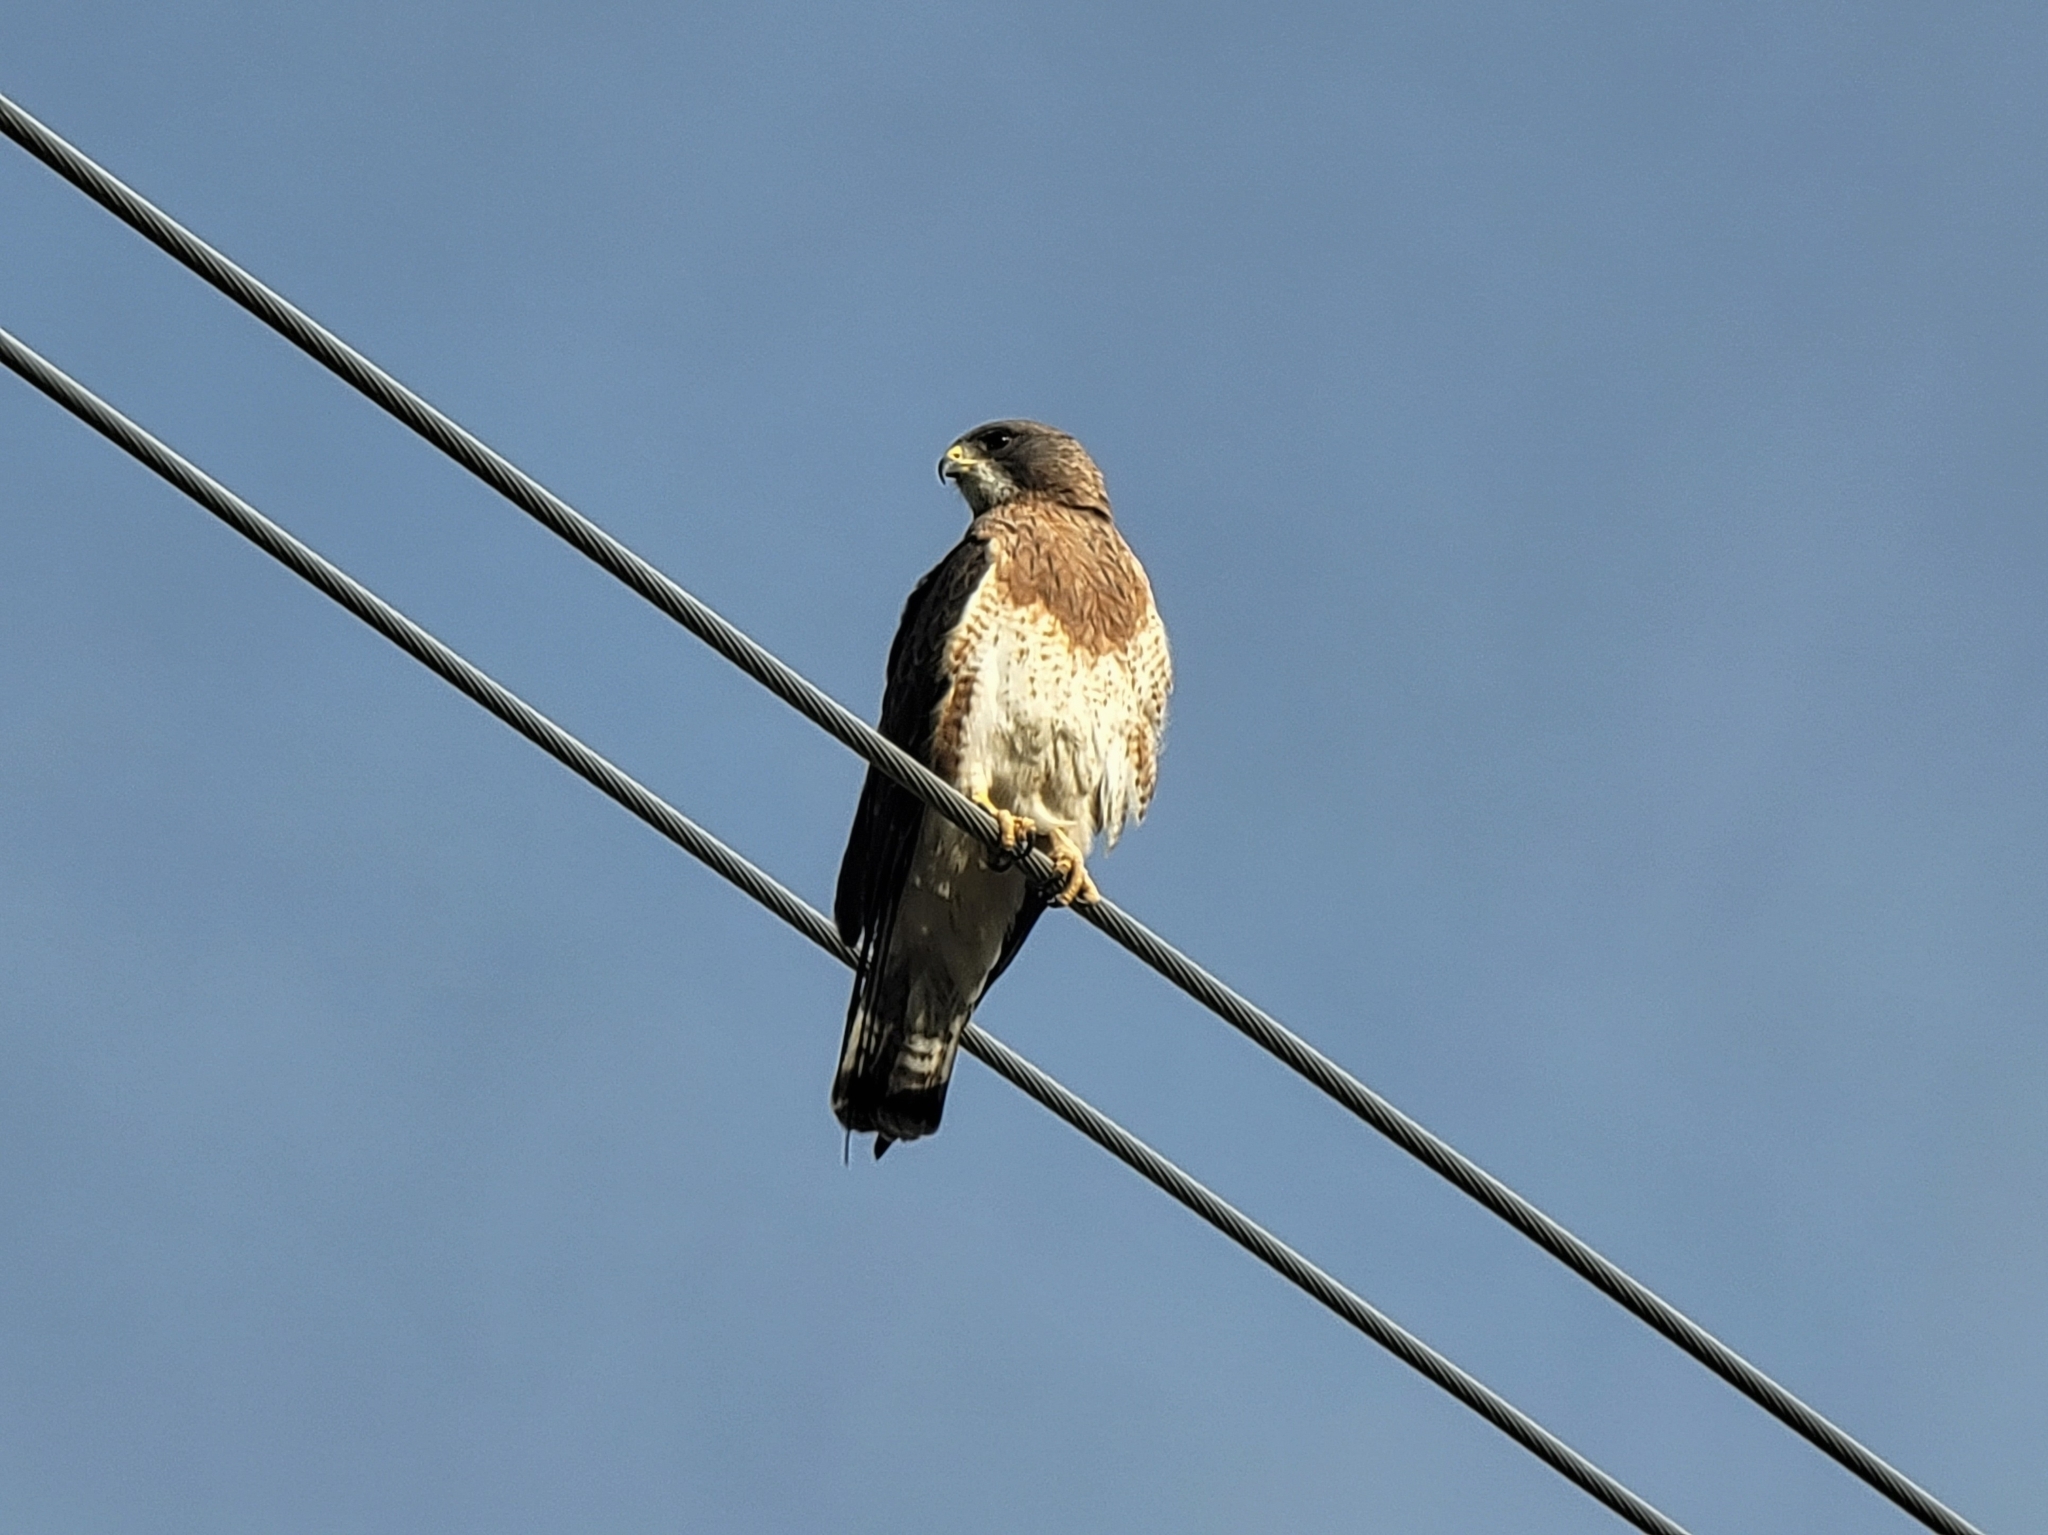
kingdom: Animalia
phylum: Chordata
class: Aves
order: Accipitriformes
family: Accipitridae
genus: Buteo
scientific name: Buteo swainsoni
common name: Swainson's hawk
